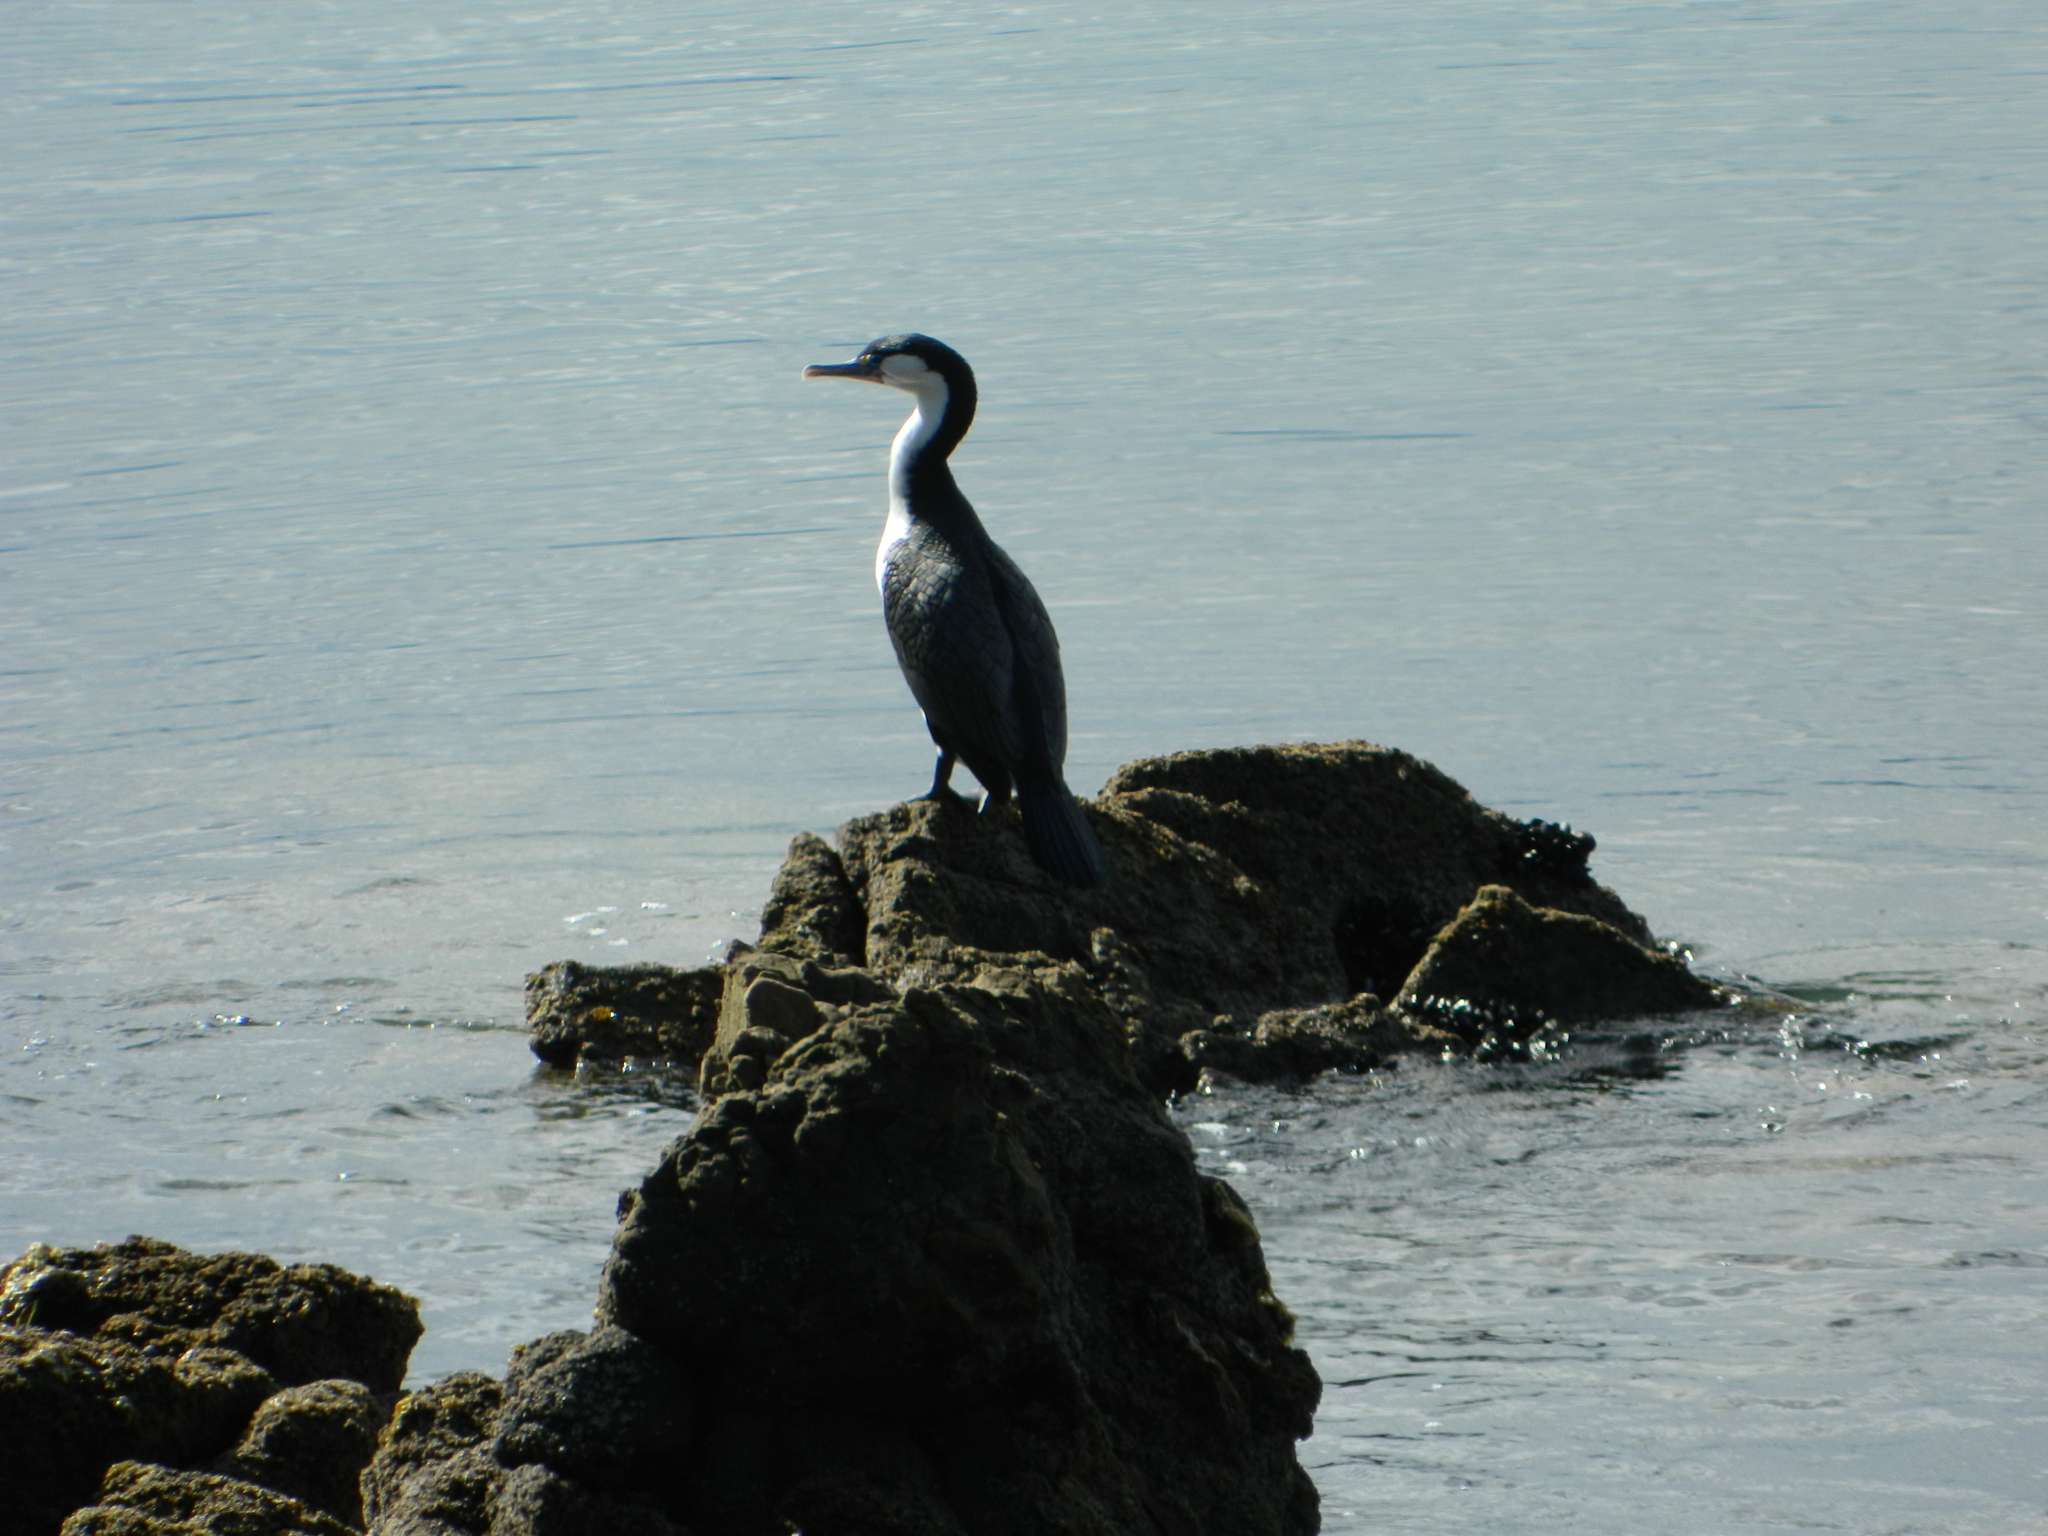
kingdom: Animalia
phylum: Chordata
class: Aves
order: Suliformes
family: Phalacrocoracidae
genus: Phalacrocorax
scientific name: Phalacrocorax varius
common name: Pied cormorant
